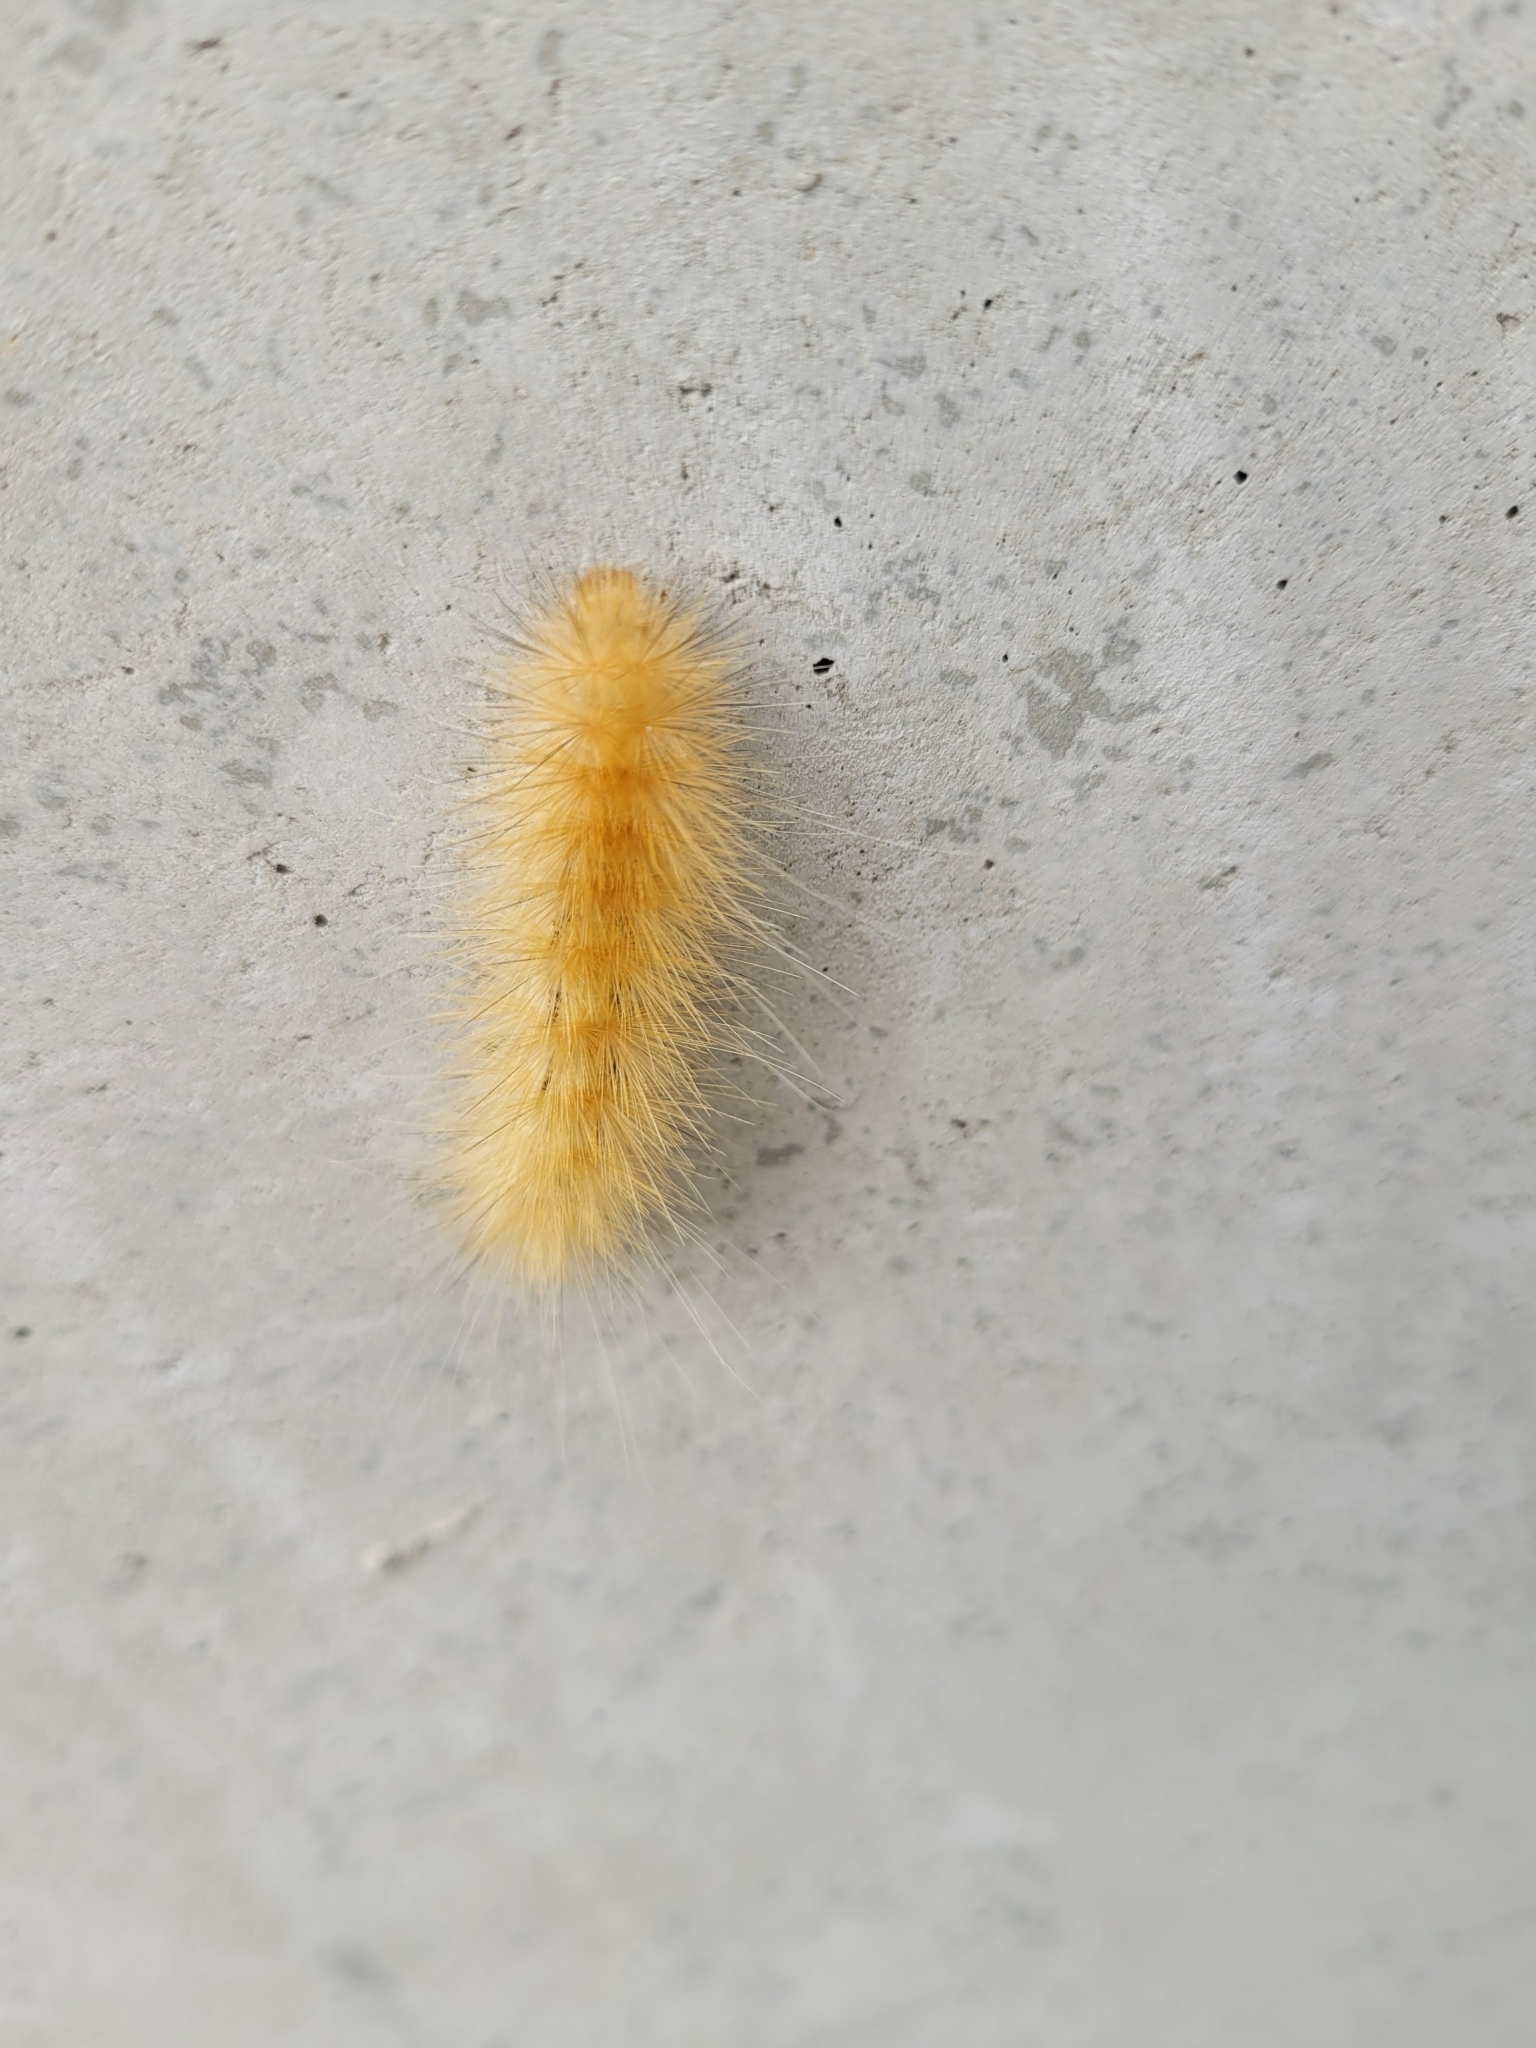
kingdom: Animalia
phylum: Arthropoda
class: Insecta
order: Lepidoptera
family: Erebidae
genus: Spilosoma
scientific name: Spilosoma virginica
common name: Virginia tiger moth
